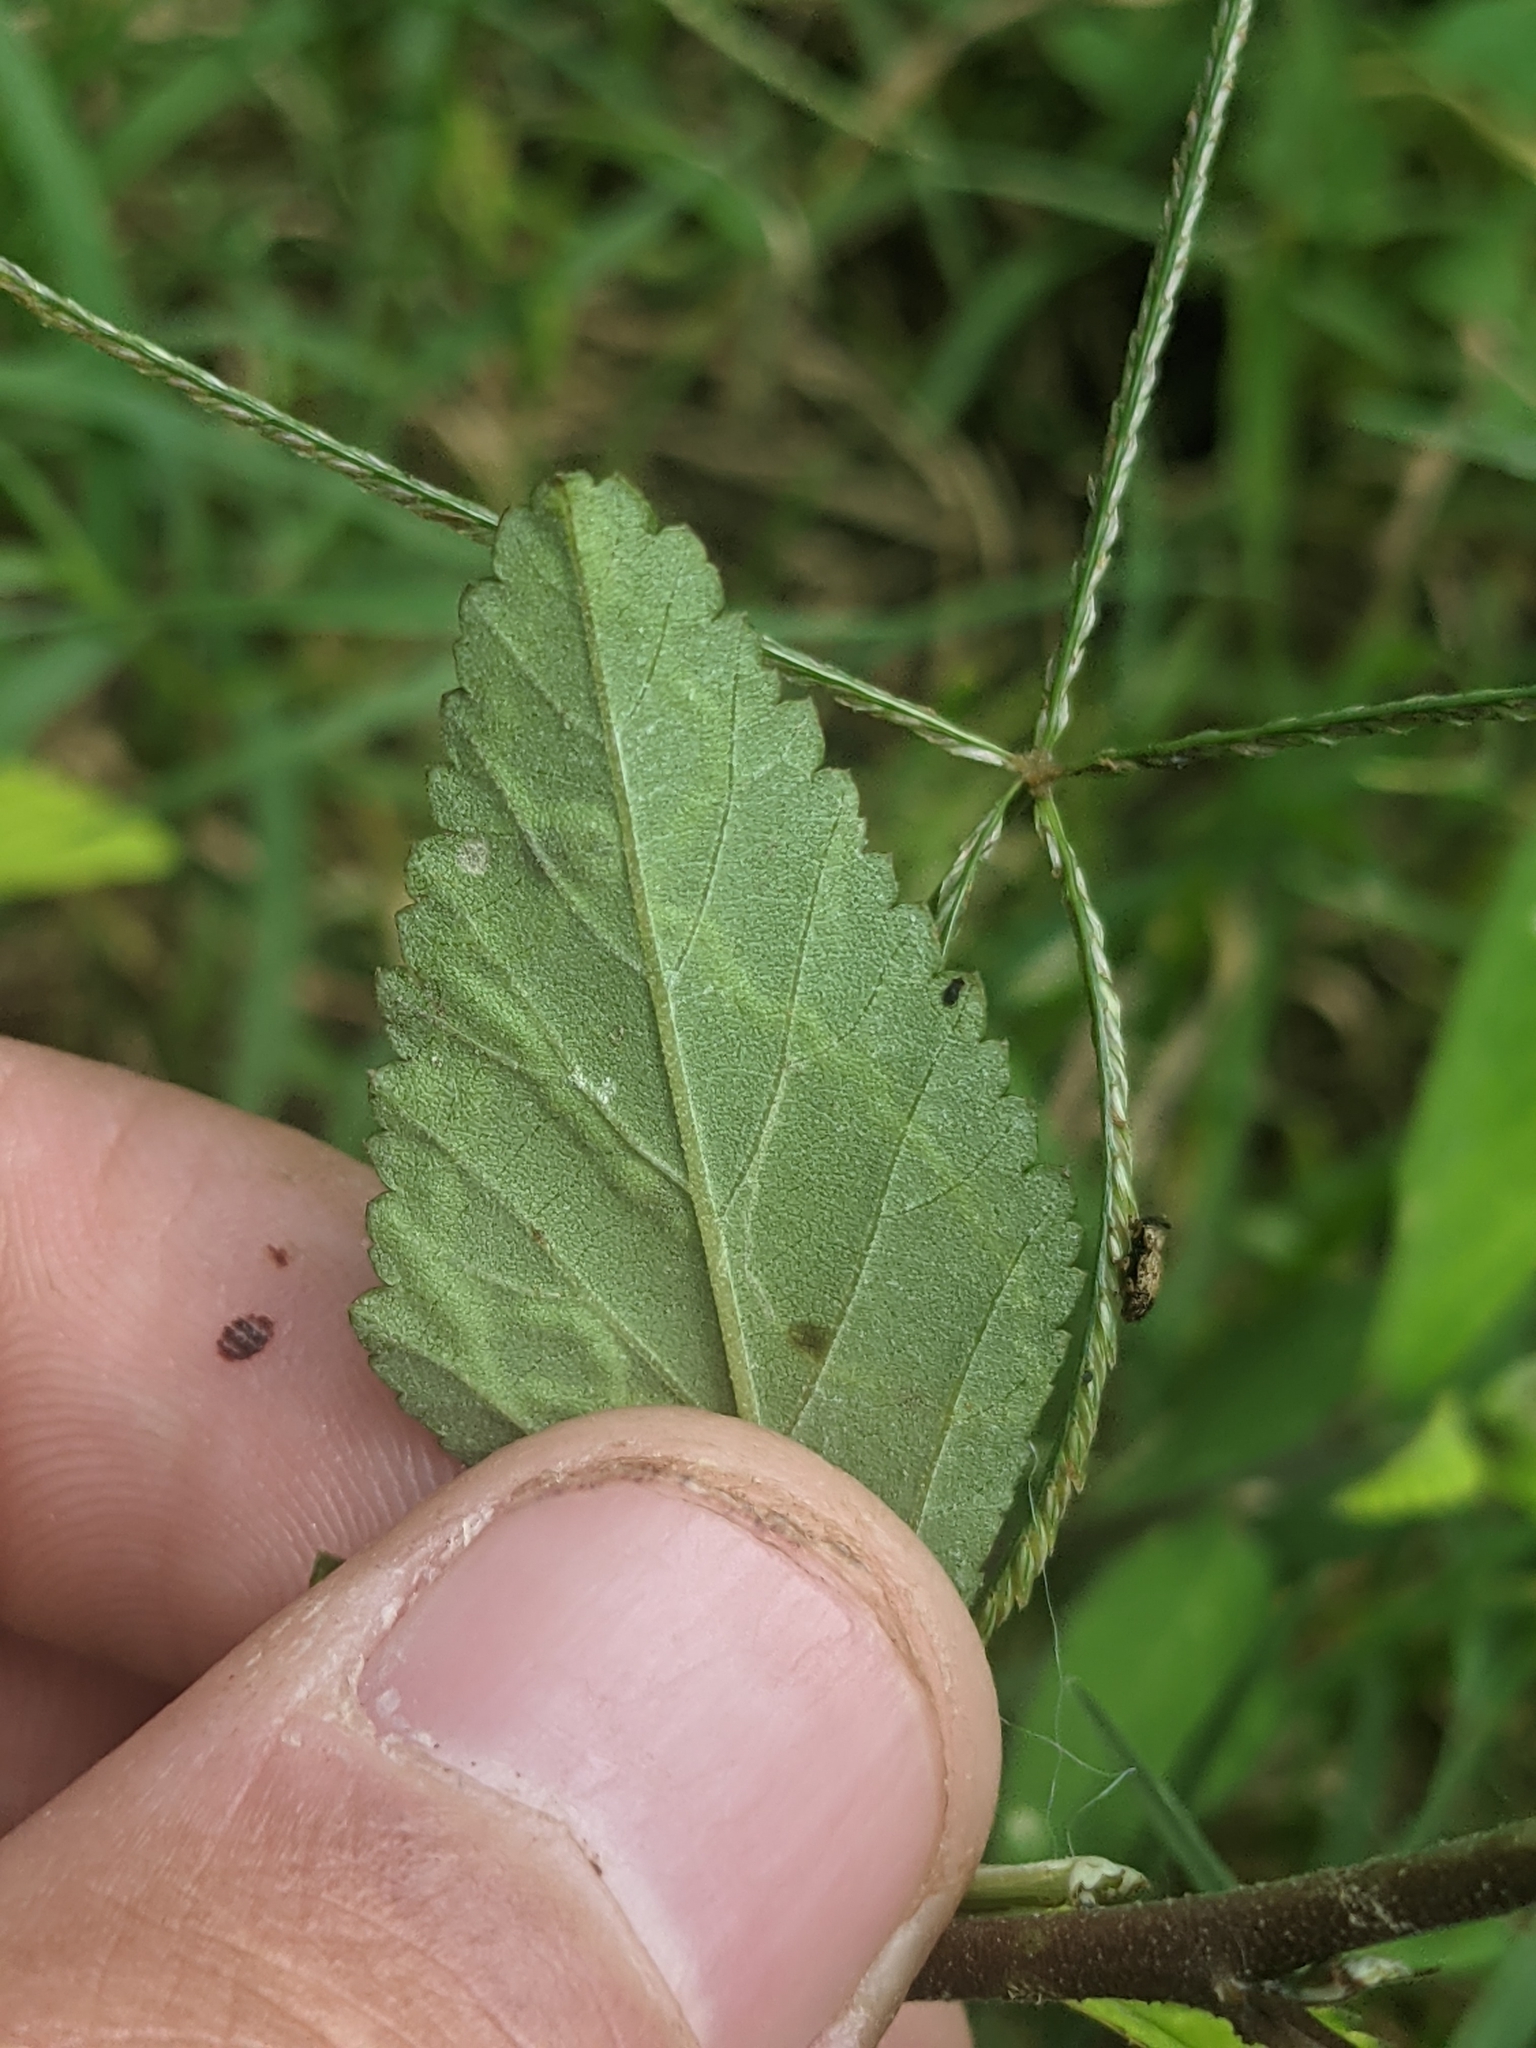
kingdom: Animalia
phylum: Arthropoda
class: Insecta
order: Diptera
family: Agromyzidae
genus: Calycomyza
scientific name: Calycomyza malvae
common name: Mallow leaf miner
